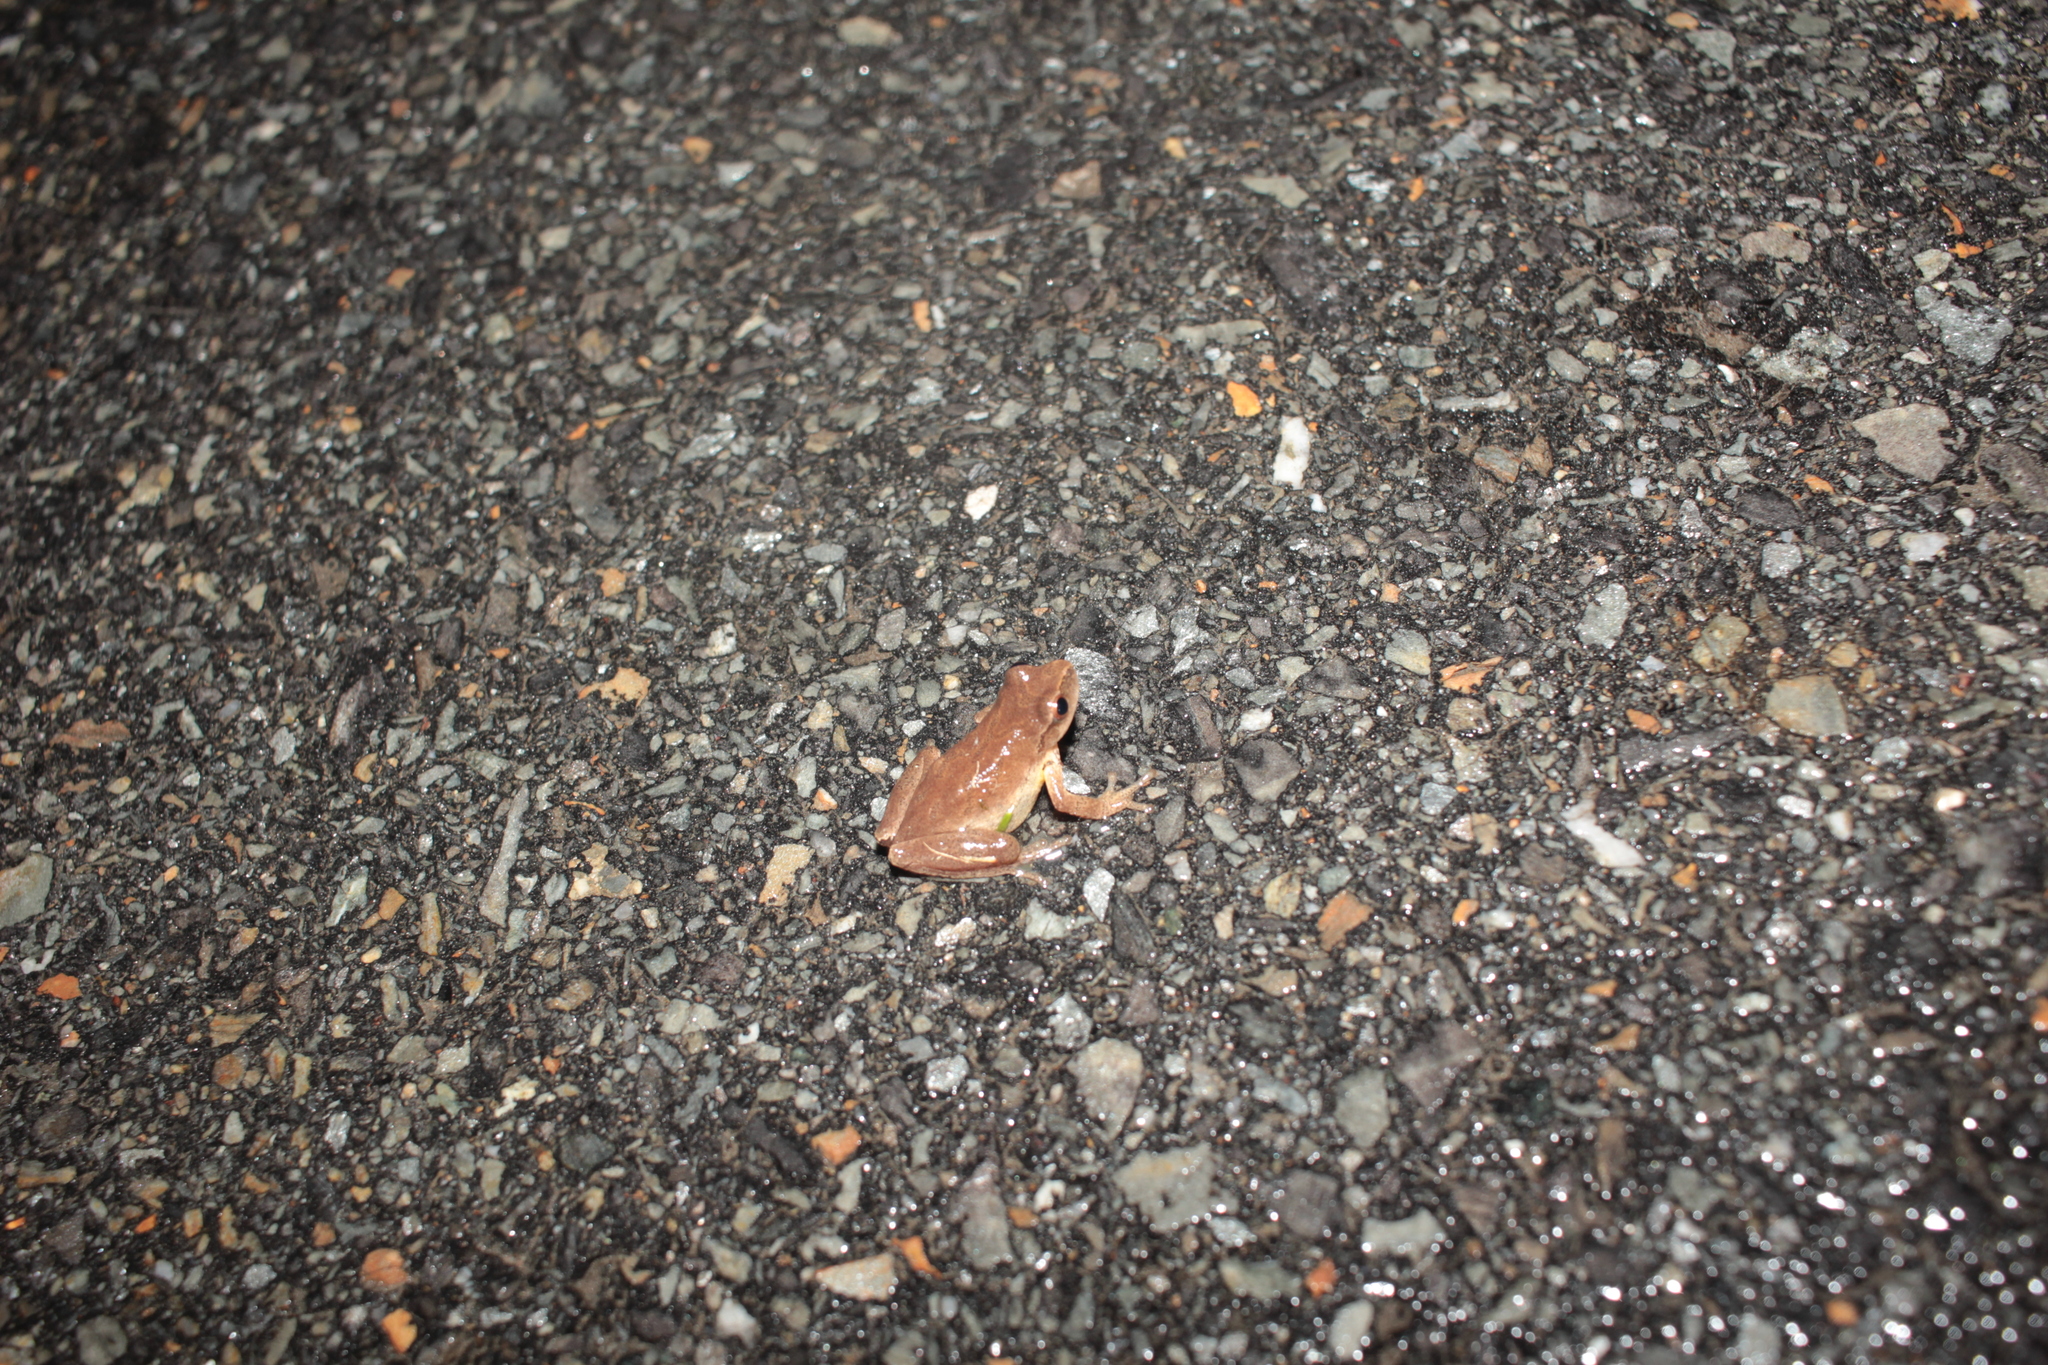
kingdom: Animalia
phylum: Chordata
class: Amphibia
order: Anura
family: Hylidae
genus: Pseudacris
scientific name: Pseudacris crucifer
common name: Spring peeper
